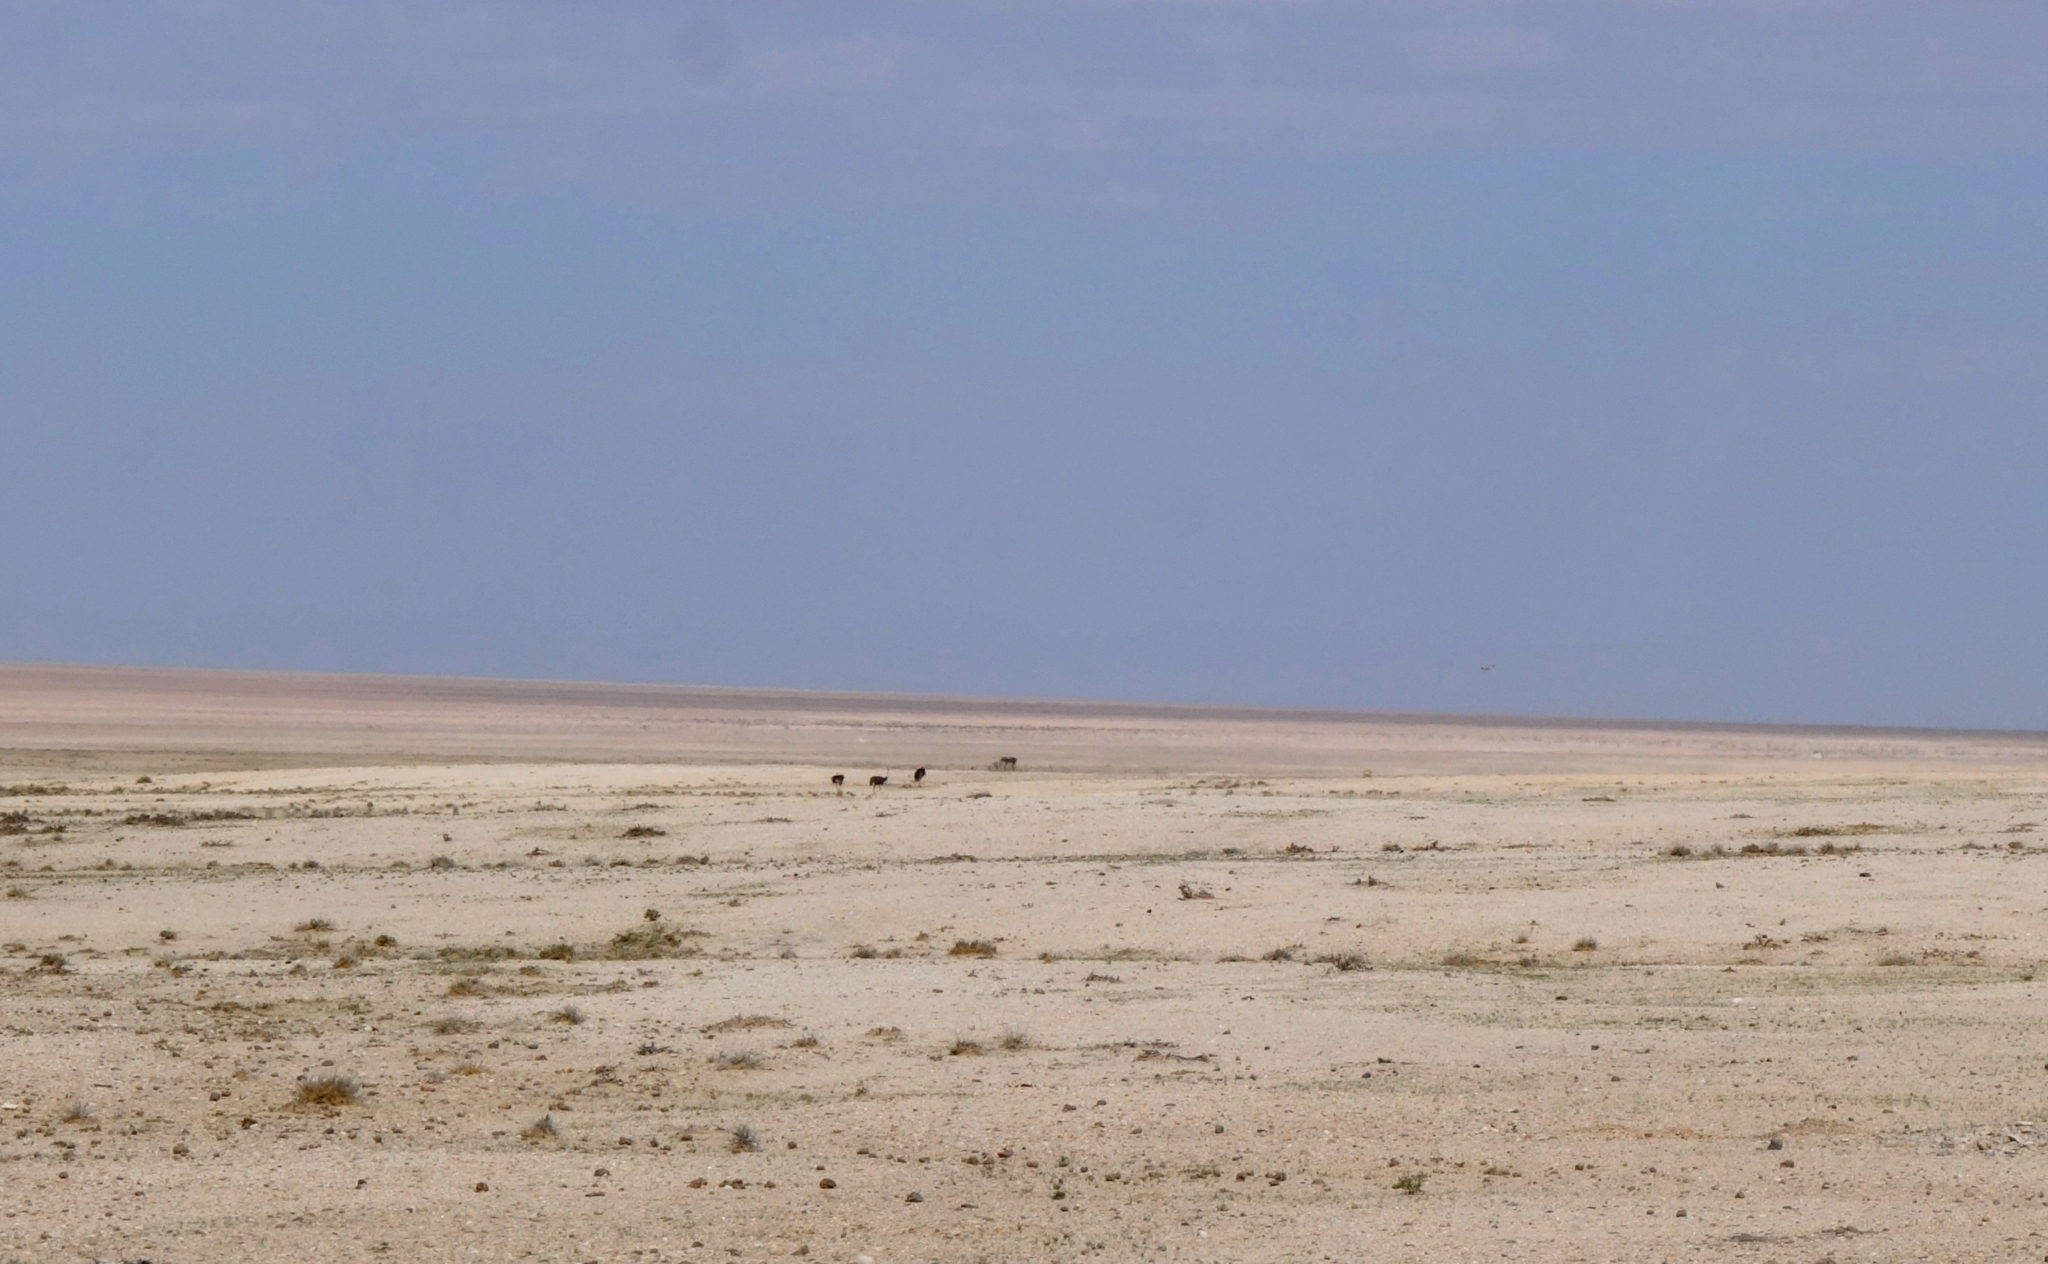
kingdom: Animalia
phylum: Chordata
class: Aves
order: Struthioniformes
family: Struthionidae
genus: Struthio
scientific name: Struthio camelus
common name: Common ostrich
